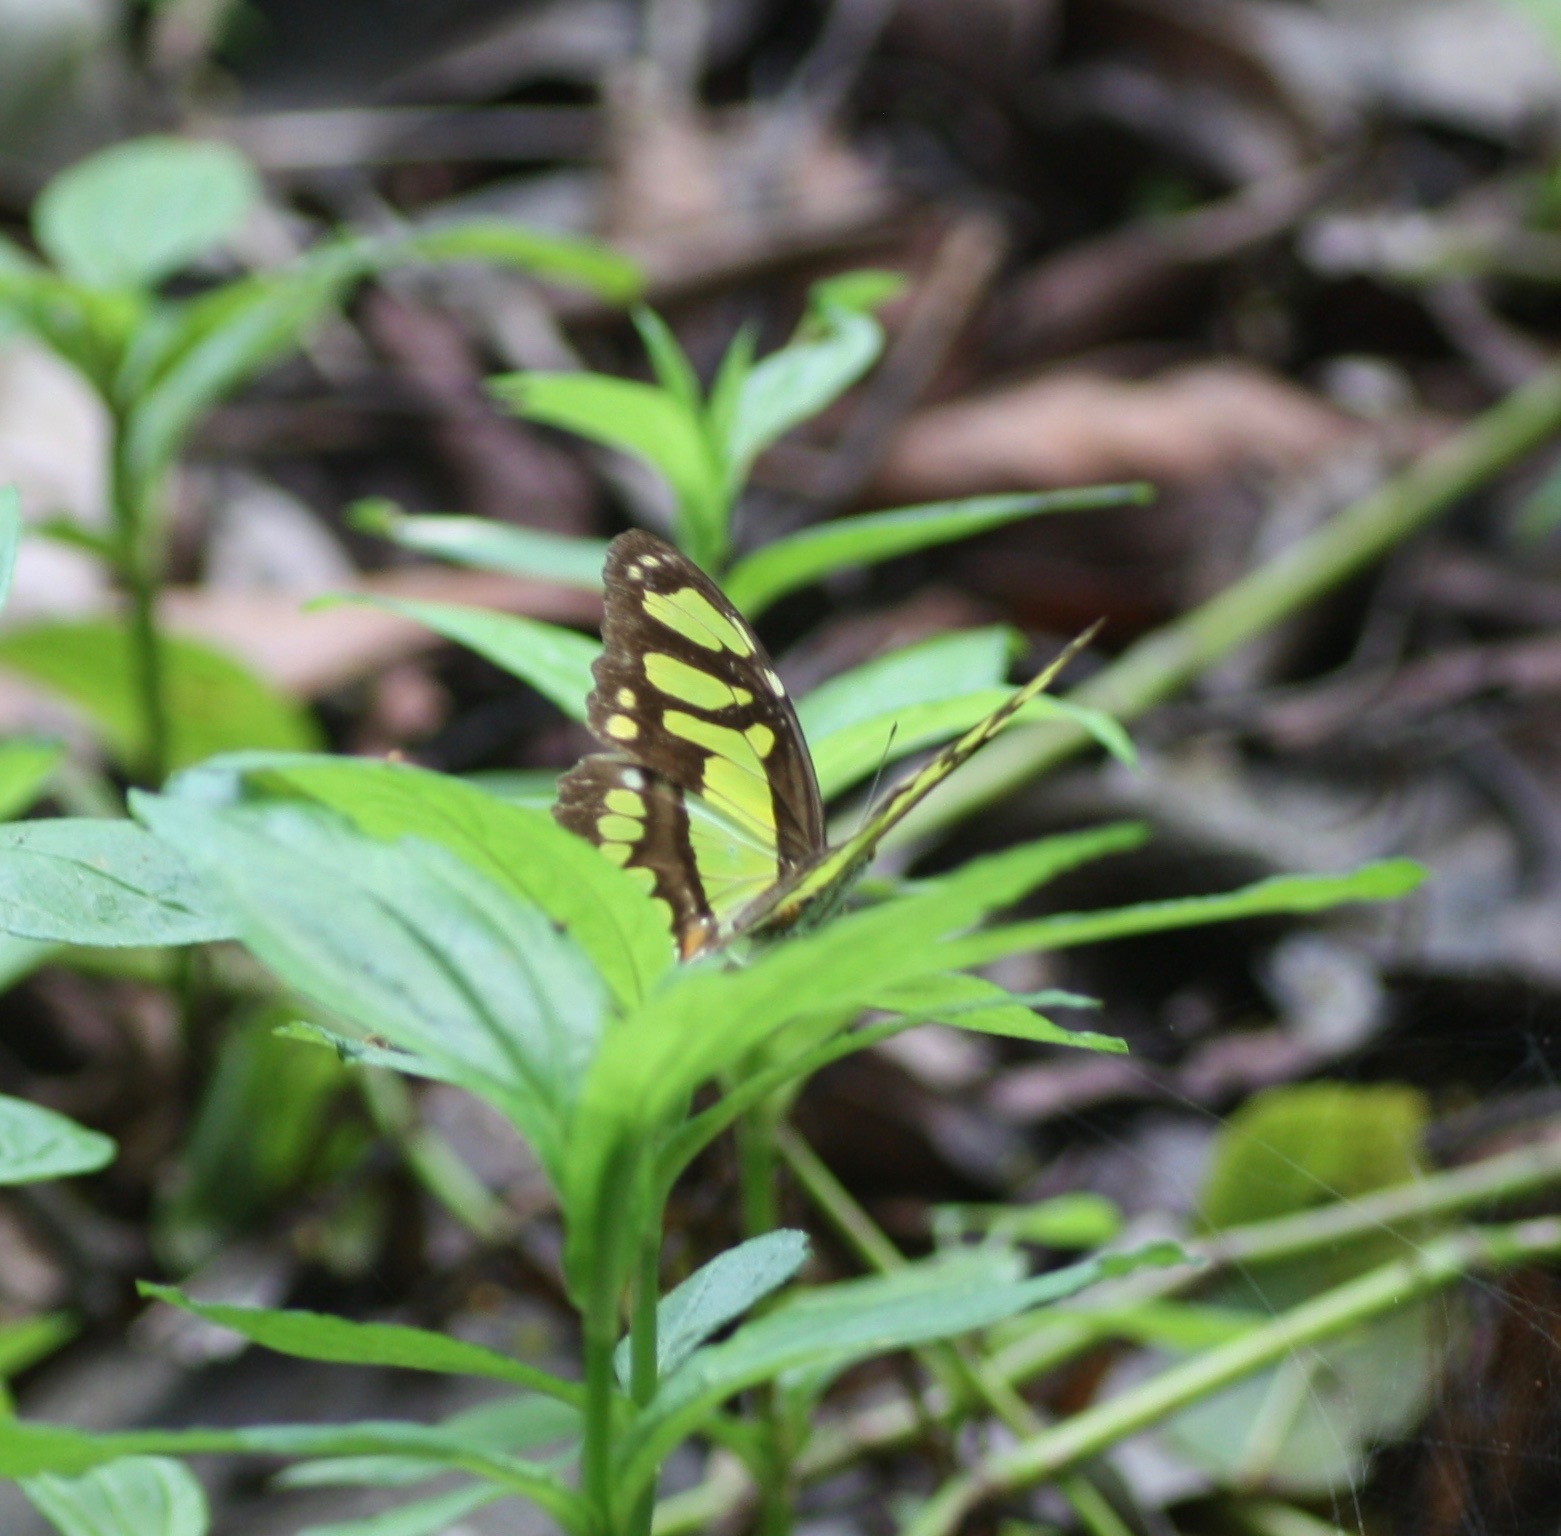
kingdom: Animalia
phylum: Arthropoda
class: Insecta
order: Lepidoptera
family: Nymphalidae
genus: Siproeta
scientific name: Siproeta stelenes
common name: Malachite
